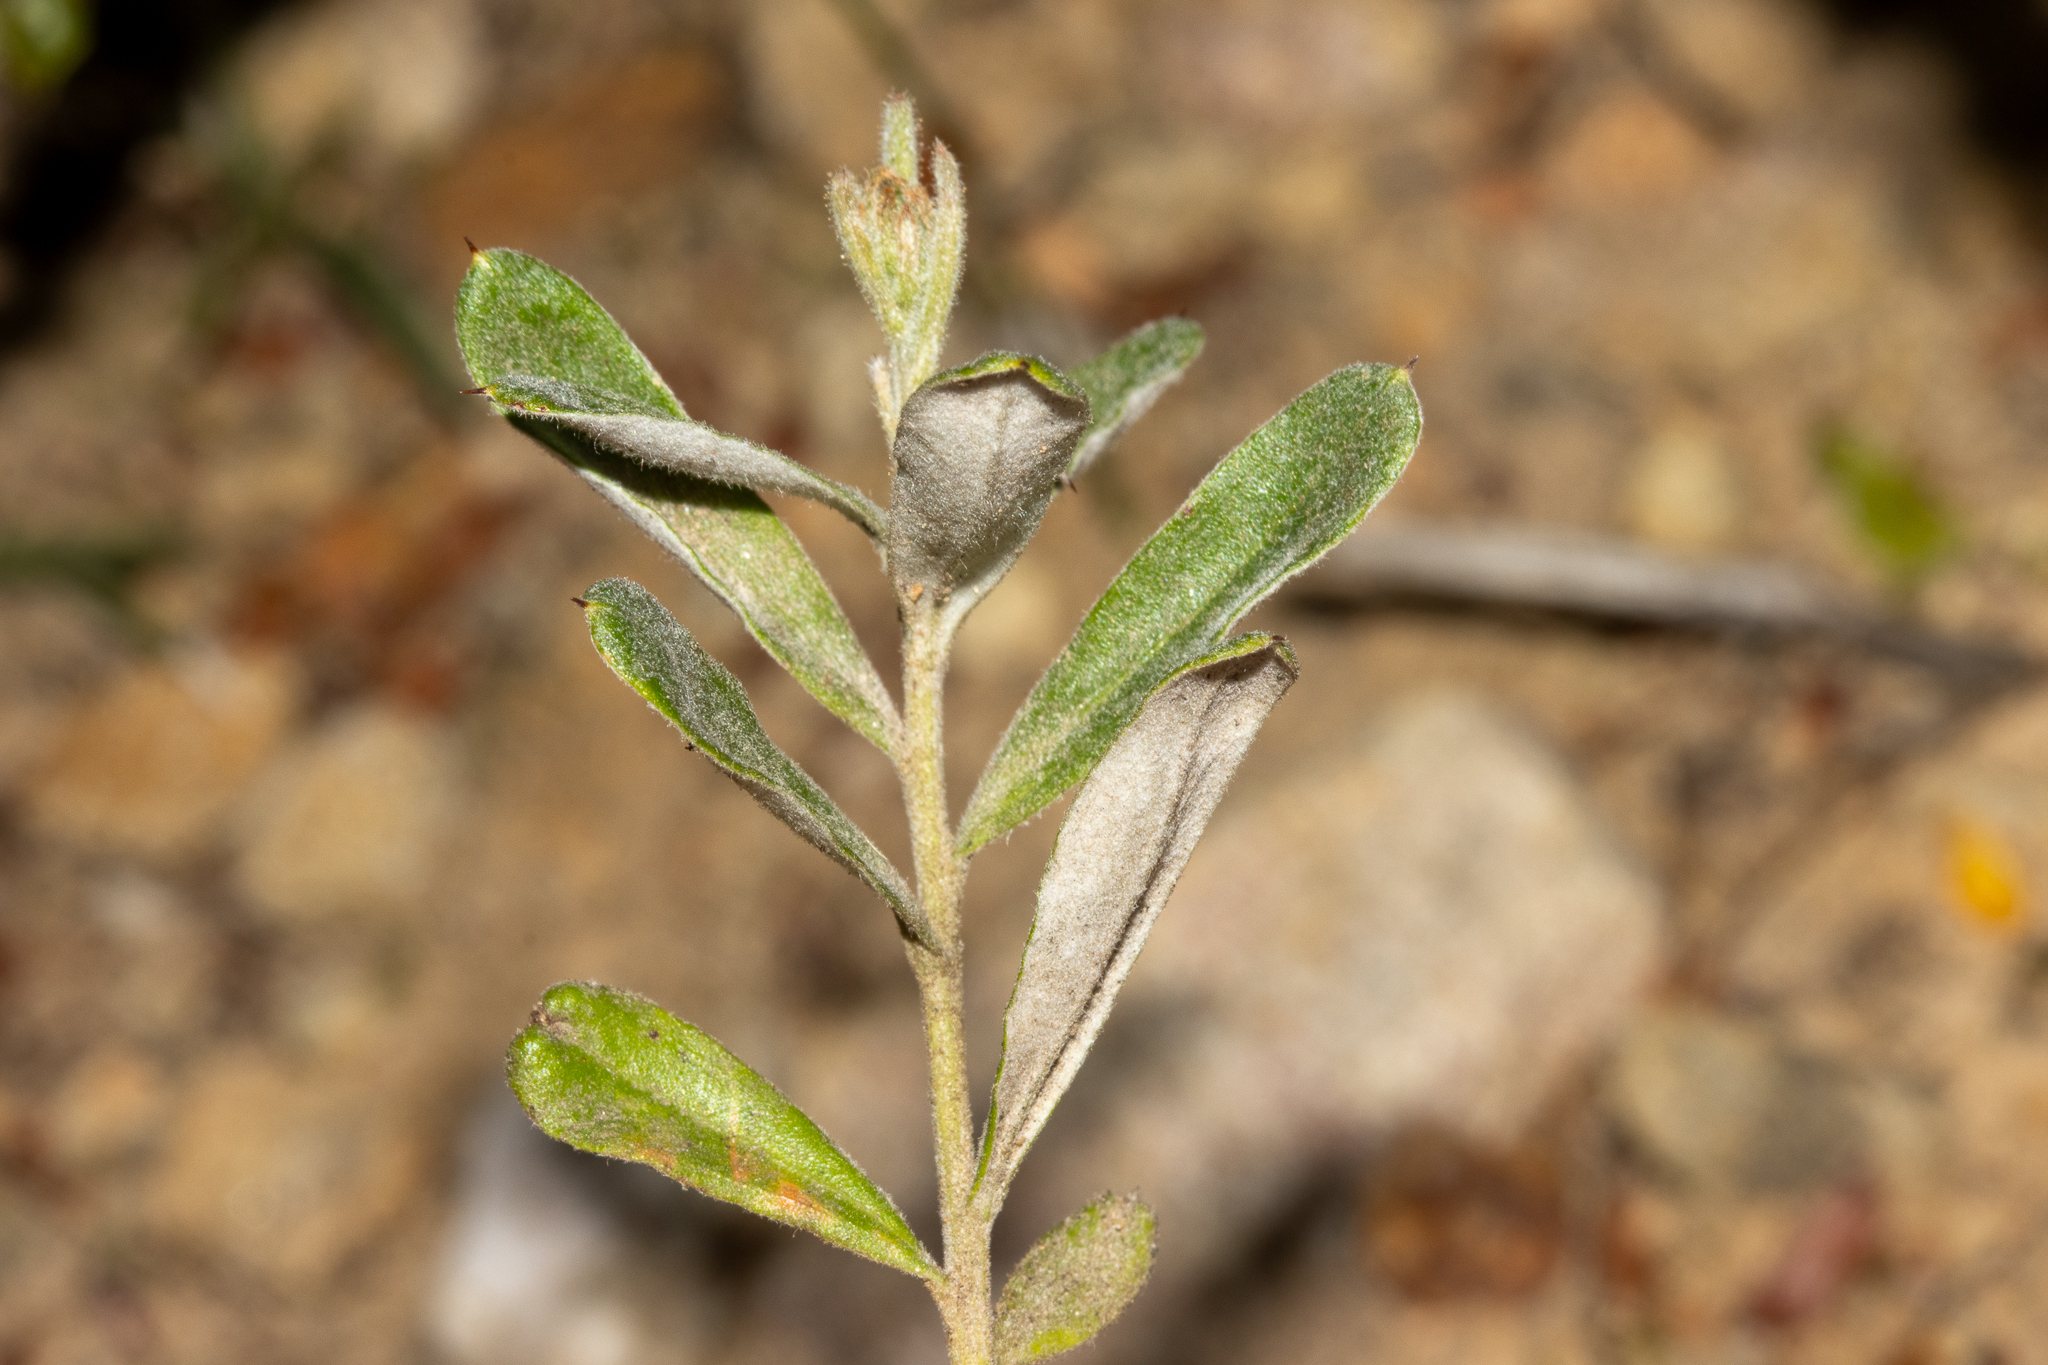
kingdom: Plantae
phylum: Tracheophyta
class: Magnoliopsida
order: Proteales
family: Proteaceae
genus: Grevillea
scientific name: Grevillea lavandulacea
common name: Lavender grevillea
